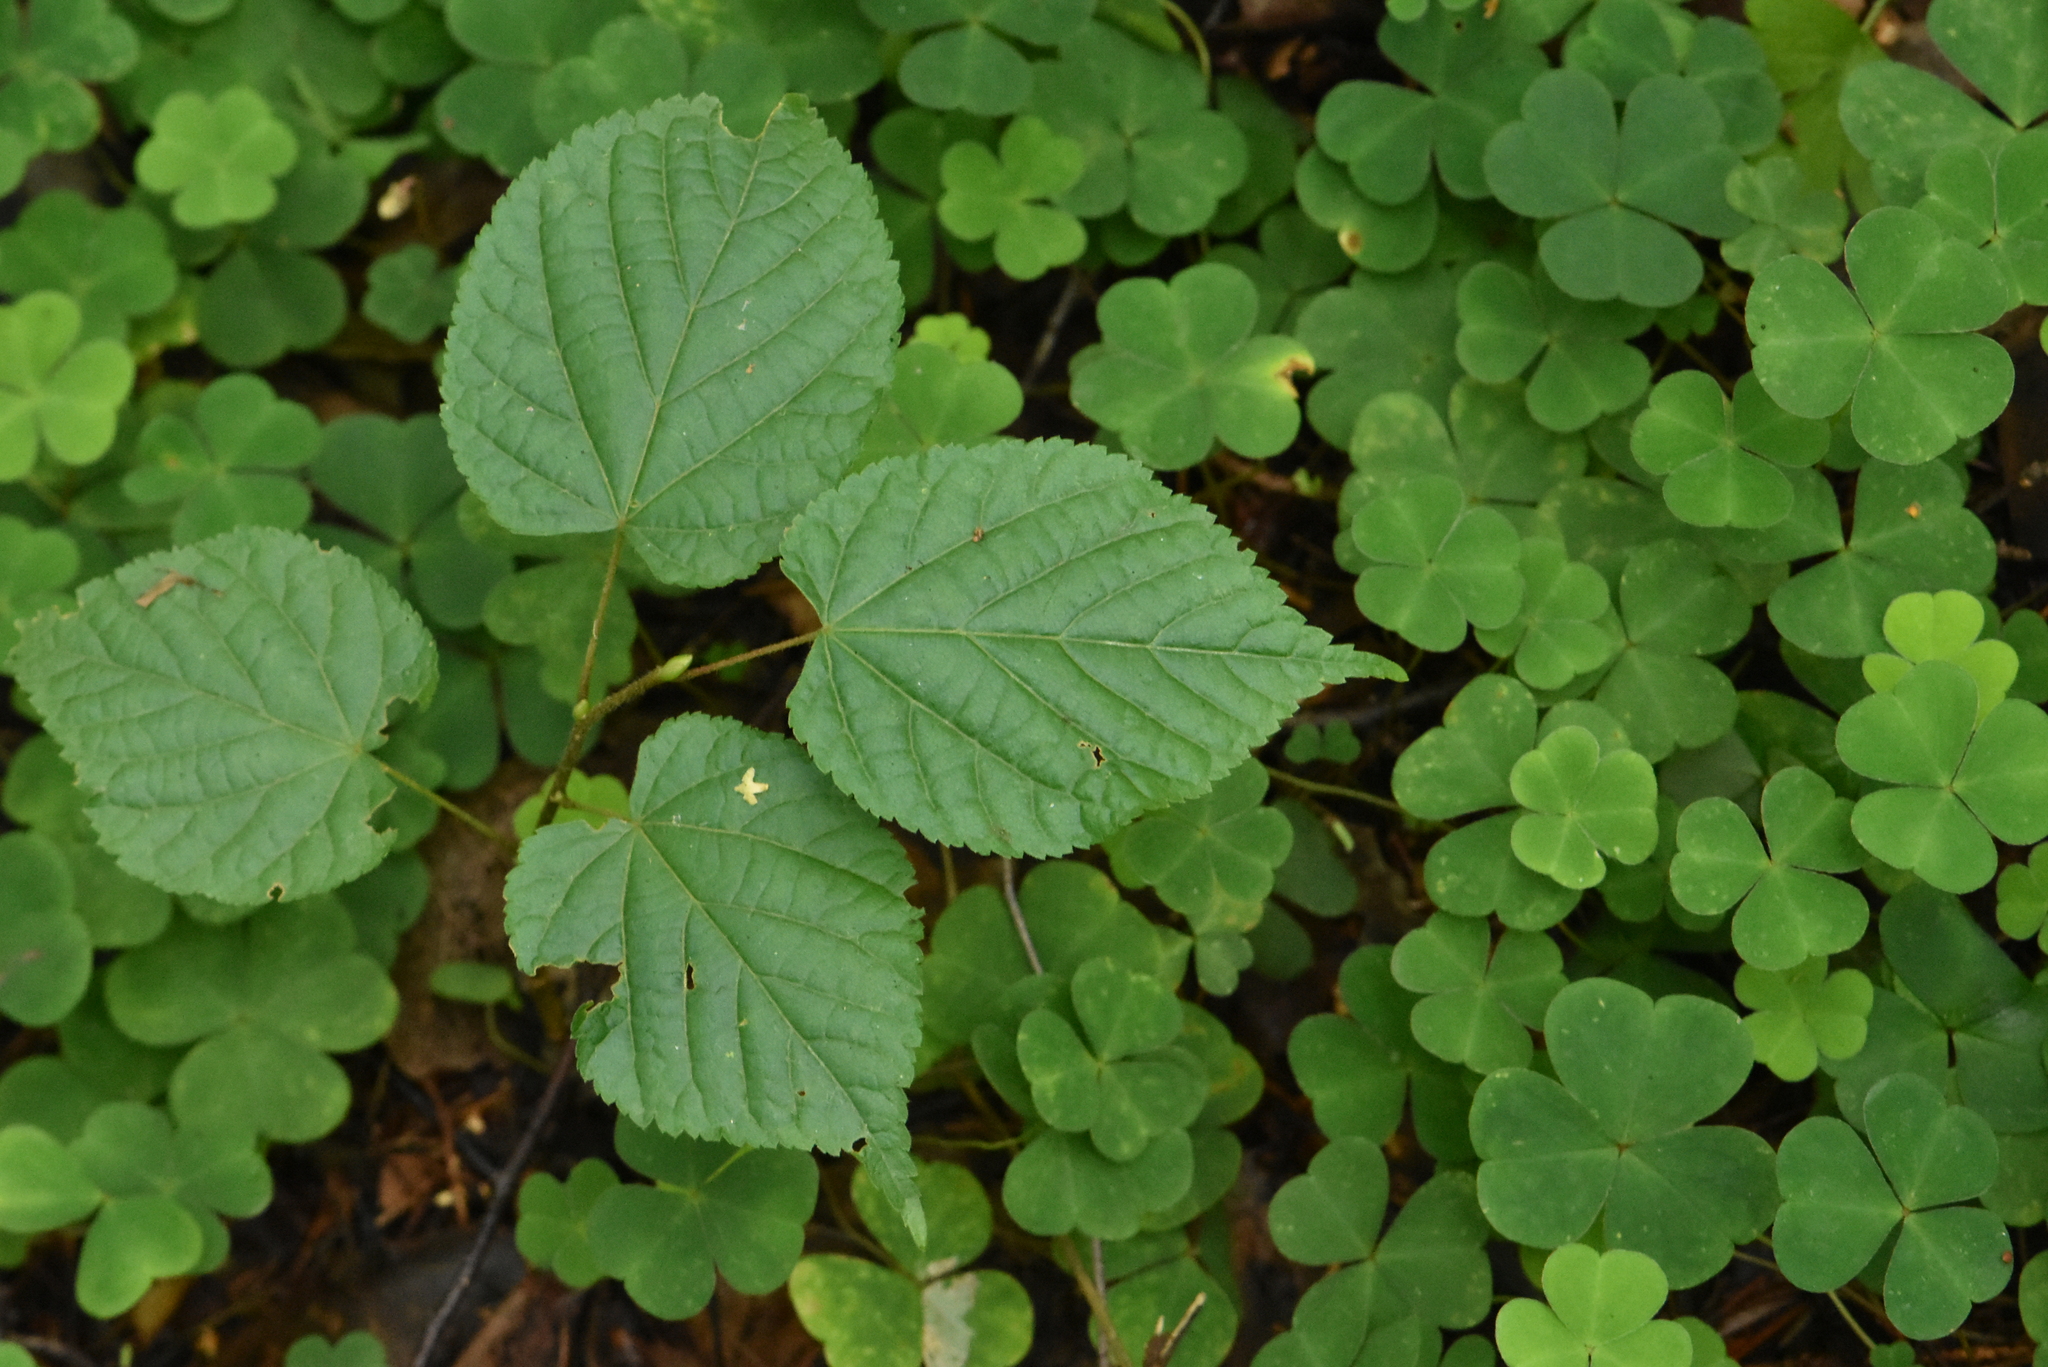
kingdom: Plantae
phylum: Tracheophyta
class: Magnoliopsida
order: Malvales
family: Malvaceae
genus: Tilia
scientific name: Tilia cordata
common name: Small-leaved lime
